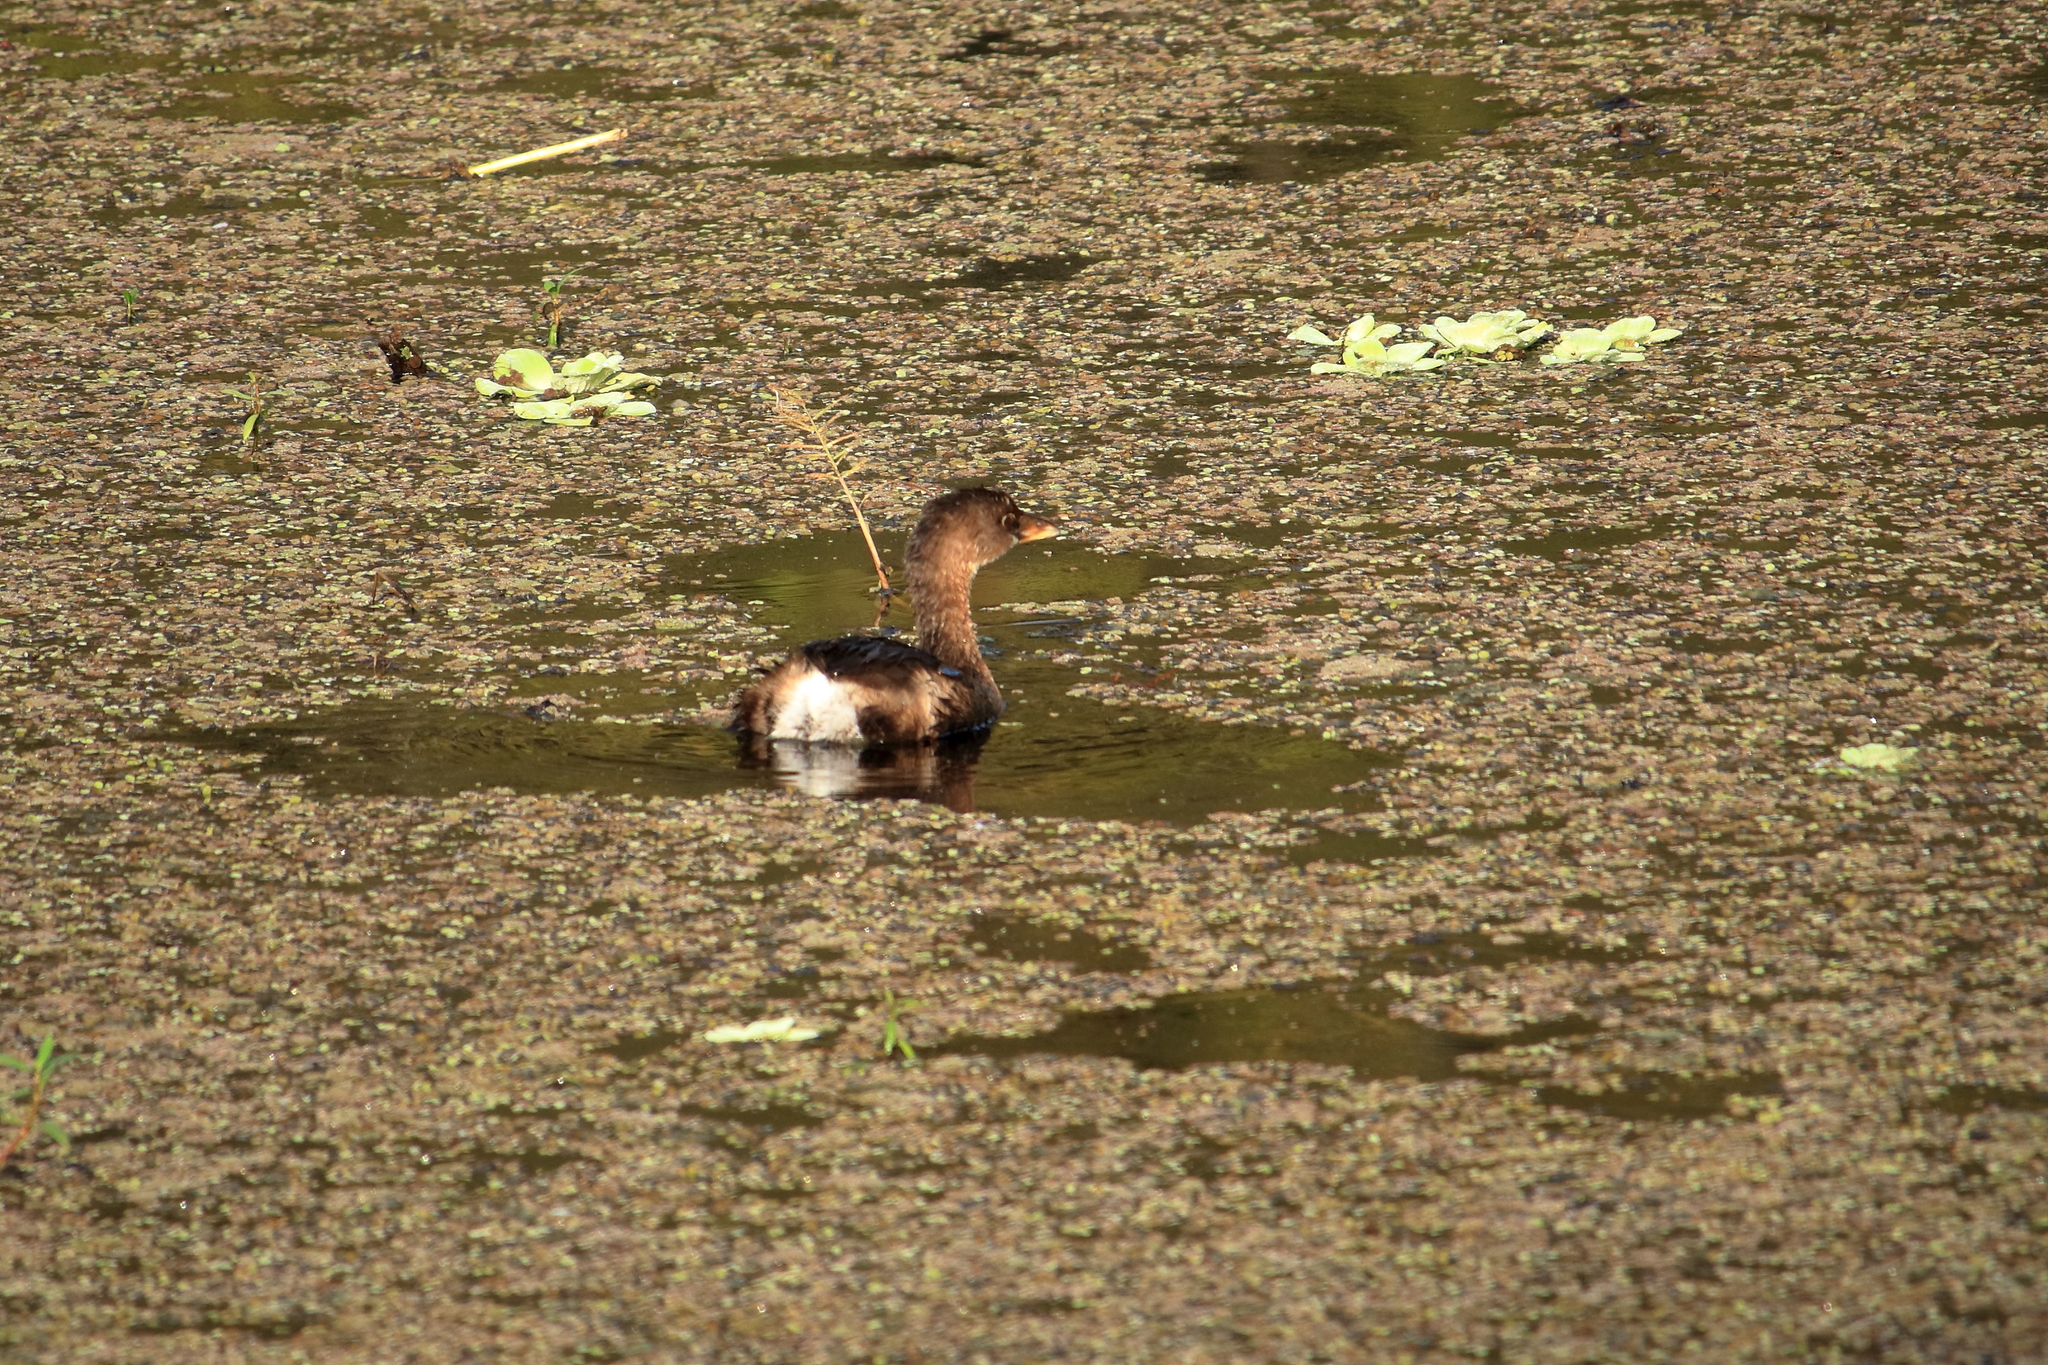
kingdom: Animalia
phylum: Chordata
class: Aves
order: Podicipediformes
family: Podicipedidae
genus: Podilymbus
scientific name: Podilymbus podiceps
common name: Pied-billed grebe
